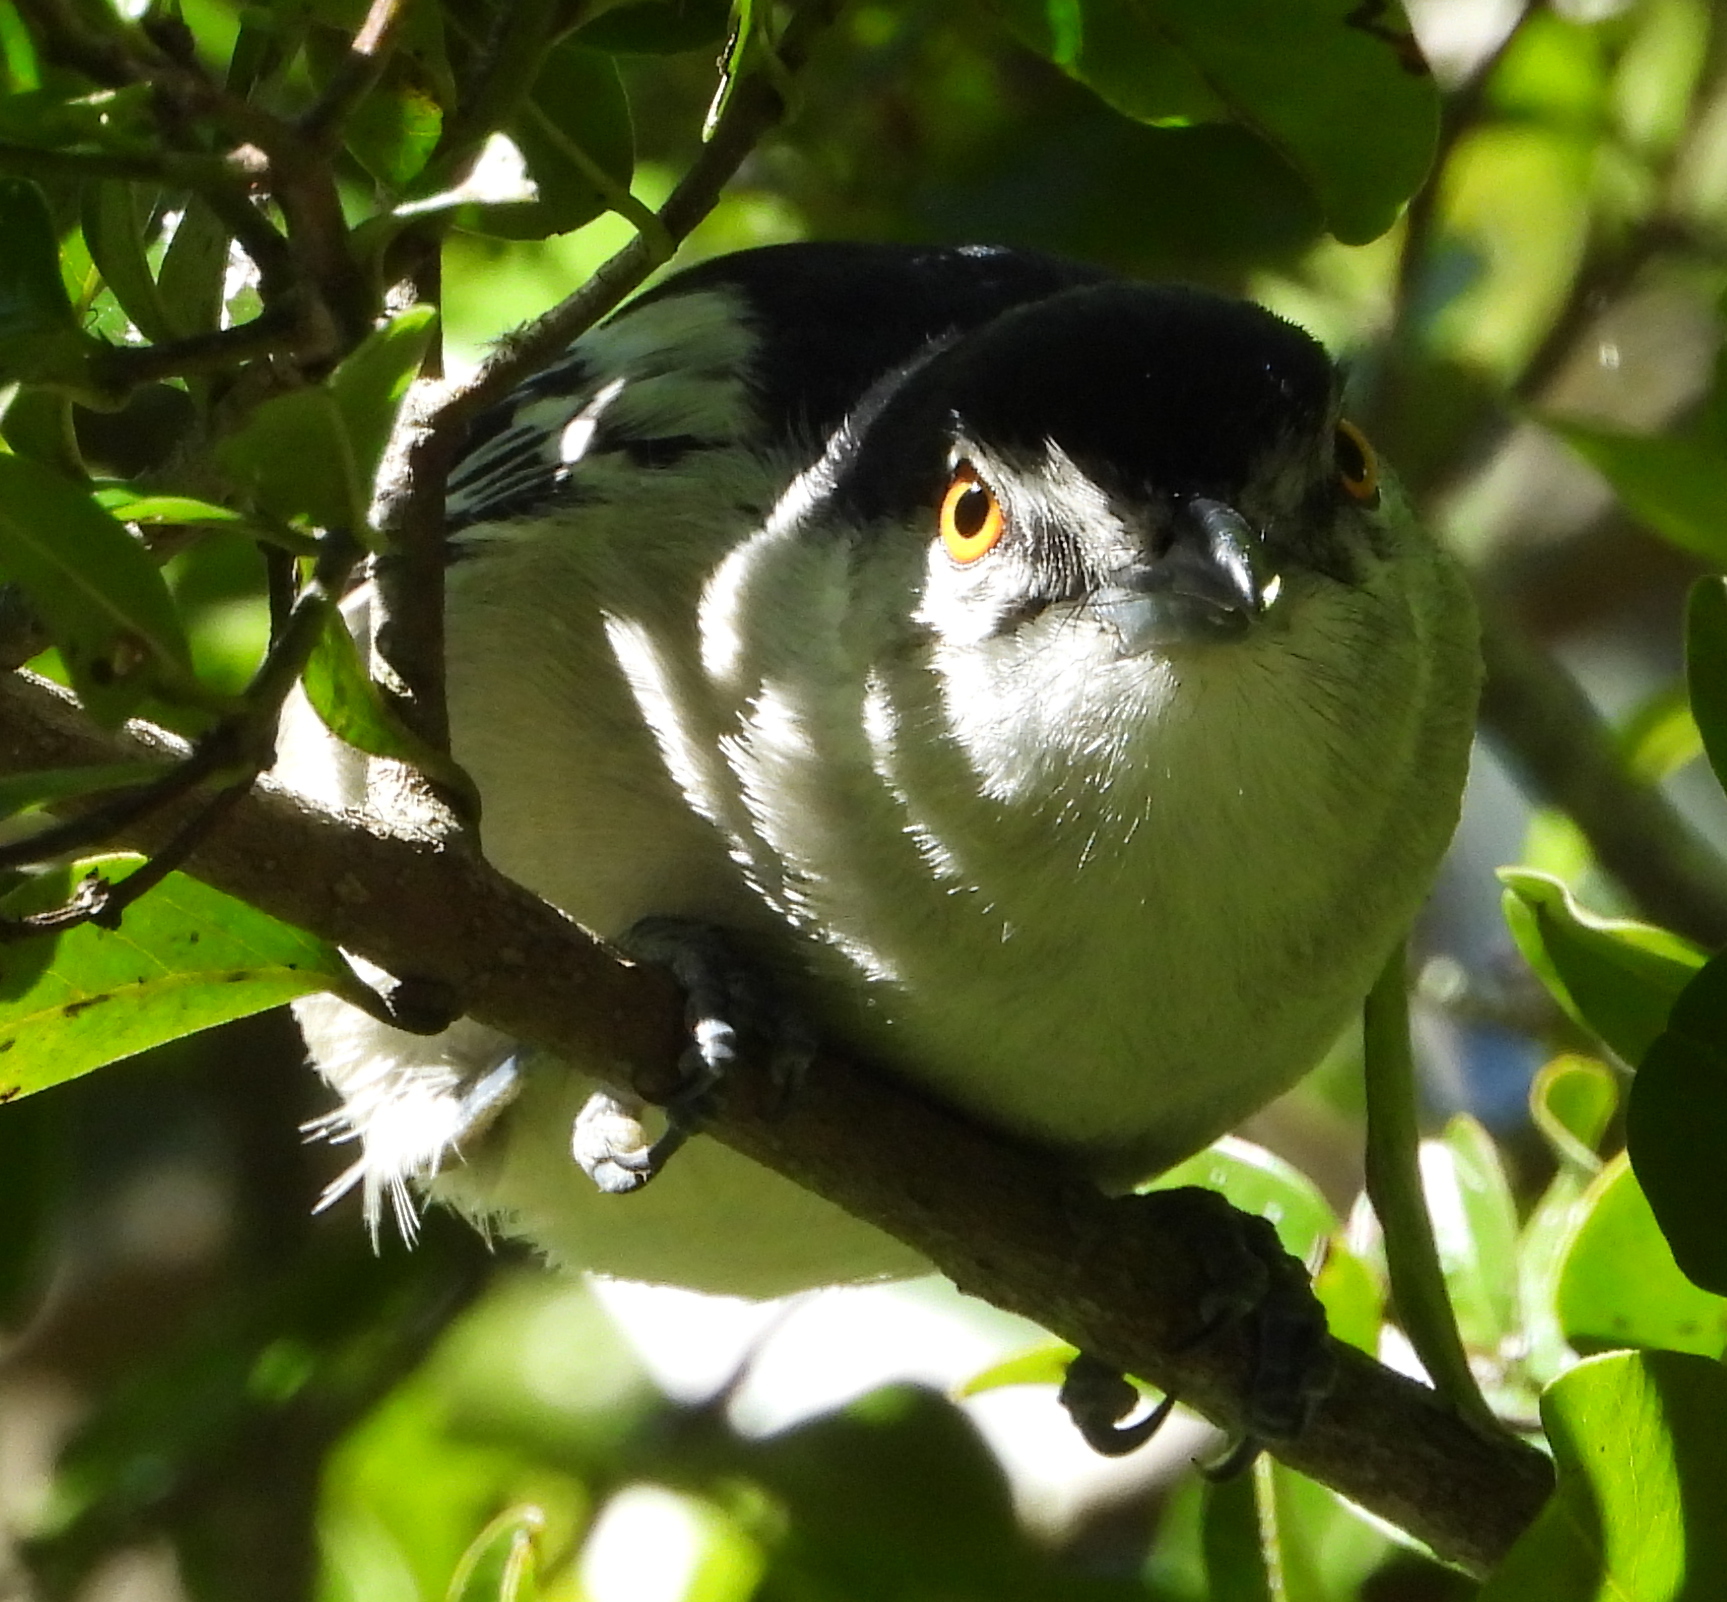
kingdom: Animalia
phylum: Chordata
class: Aves
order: Passeriformes
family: Malaconotidae
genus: Dryoscopus
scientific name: Dryoscopus cubla
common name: Black-backed puffback
